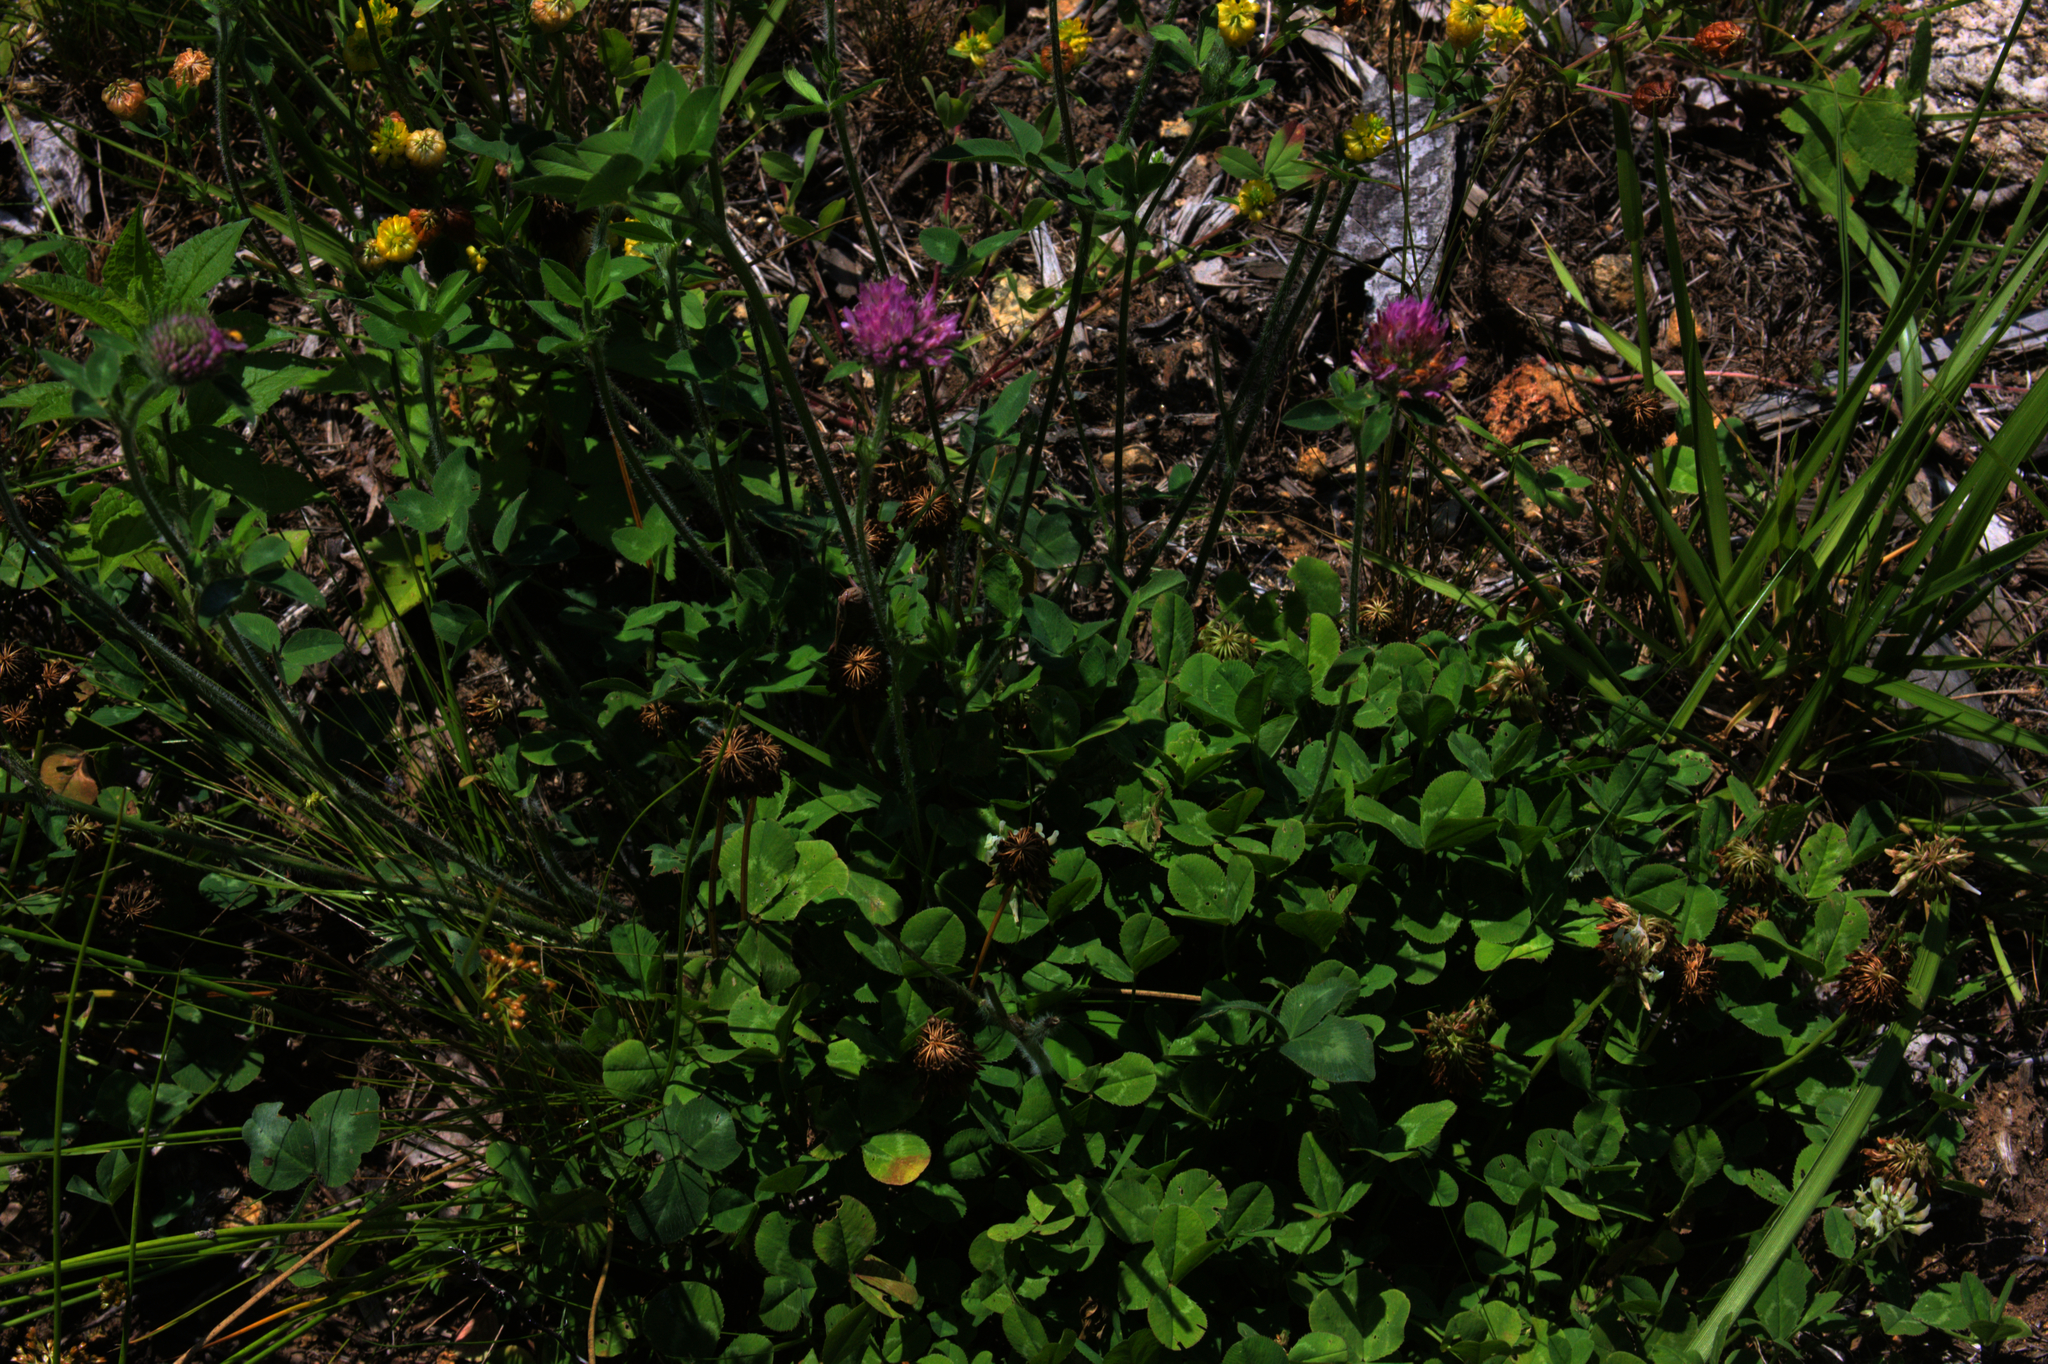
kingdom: Plantae
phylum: Tracheophyta
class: Magnoliopsida
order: Fabales
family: Fabaceae
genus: Trifolium
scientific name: Trifolium pratense
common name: Red clover
